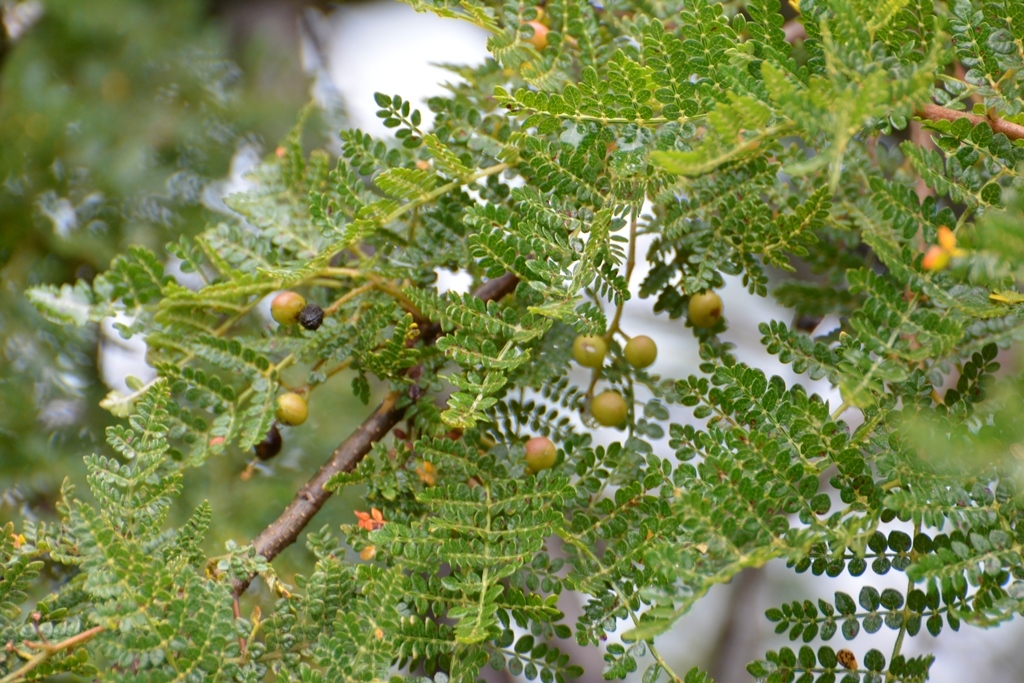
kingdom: Plantae
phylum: Tracheophyta
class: Magnoliopsida
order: Sapindales
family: Burseraceae
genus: Bursera
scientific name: Bursera bipinnata
